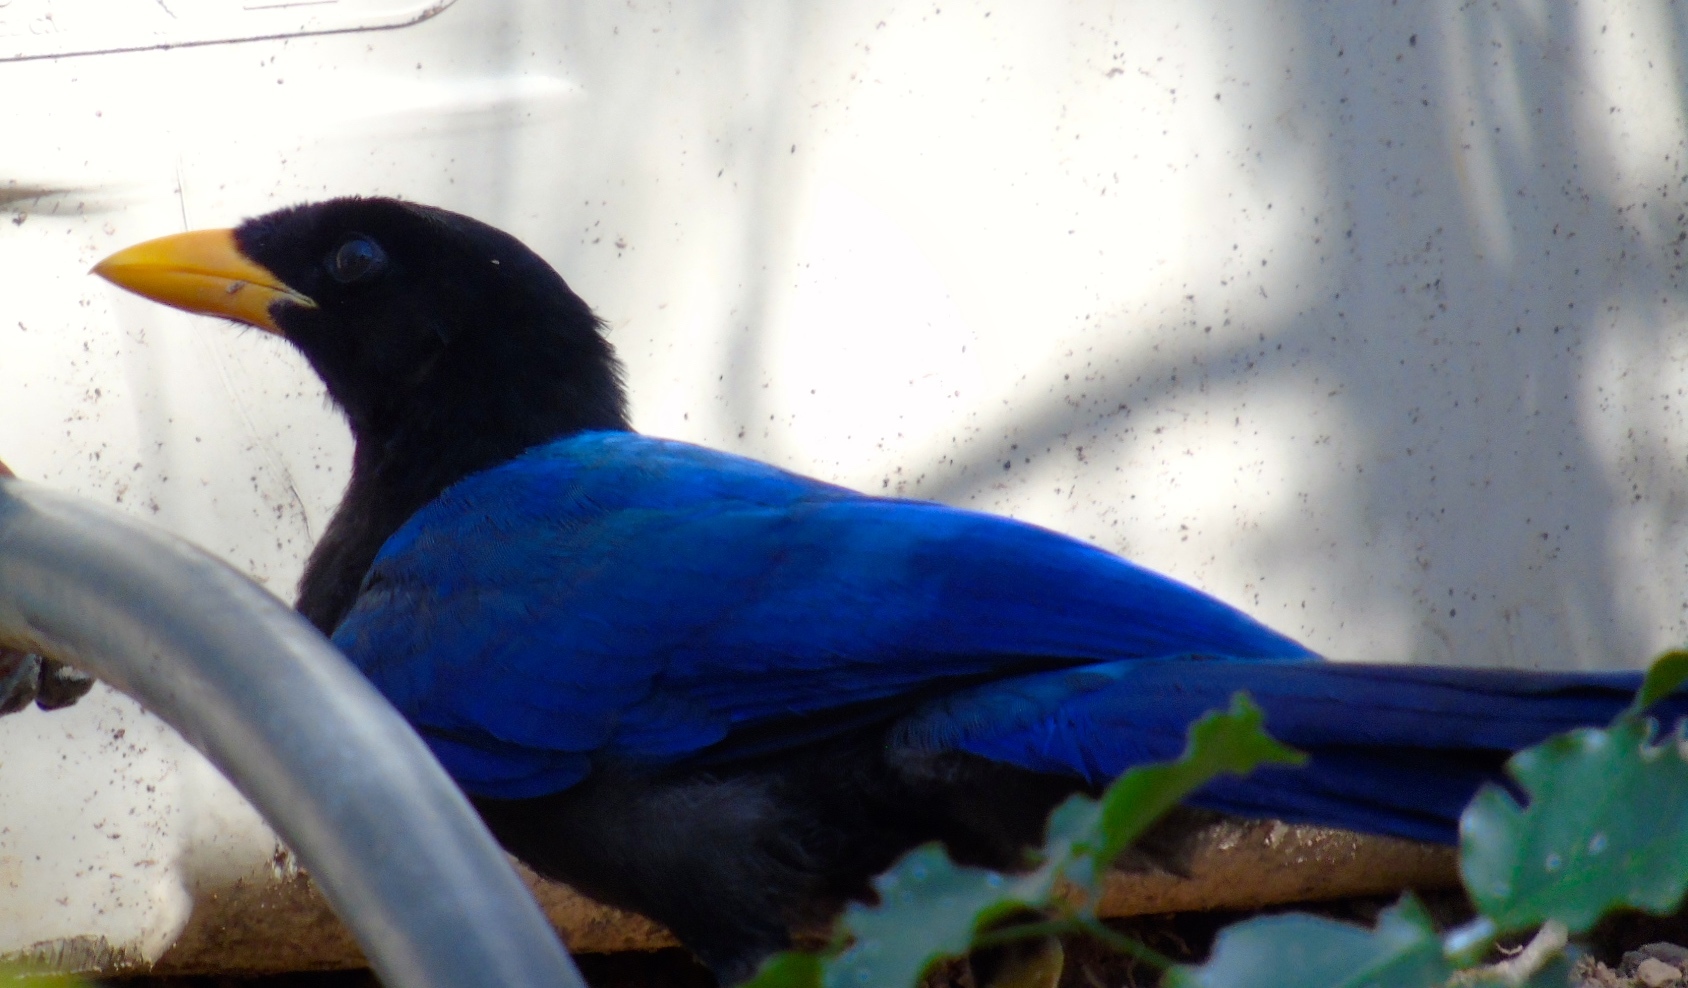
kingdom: Animalia
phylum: Chordata
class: Aves
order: Passeriformes
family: Corvidae
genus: Cyanocorax
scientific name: Cyanocorax beecheii
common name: Purplish-backed jay
